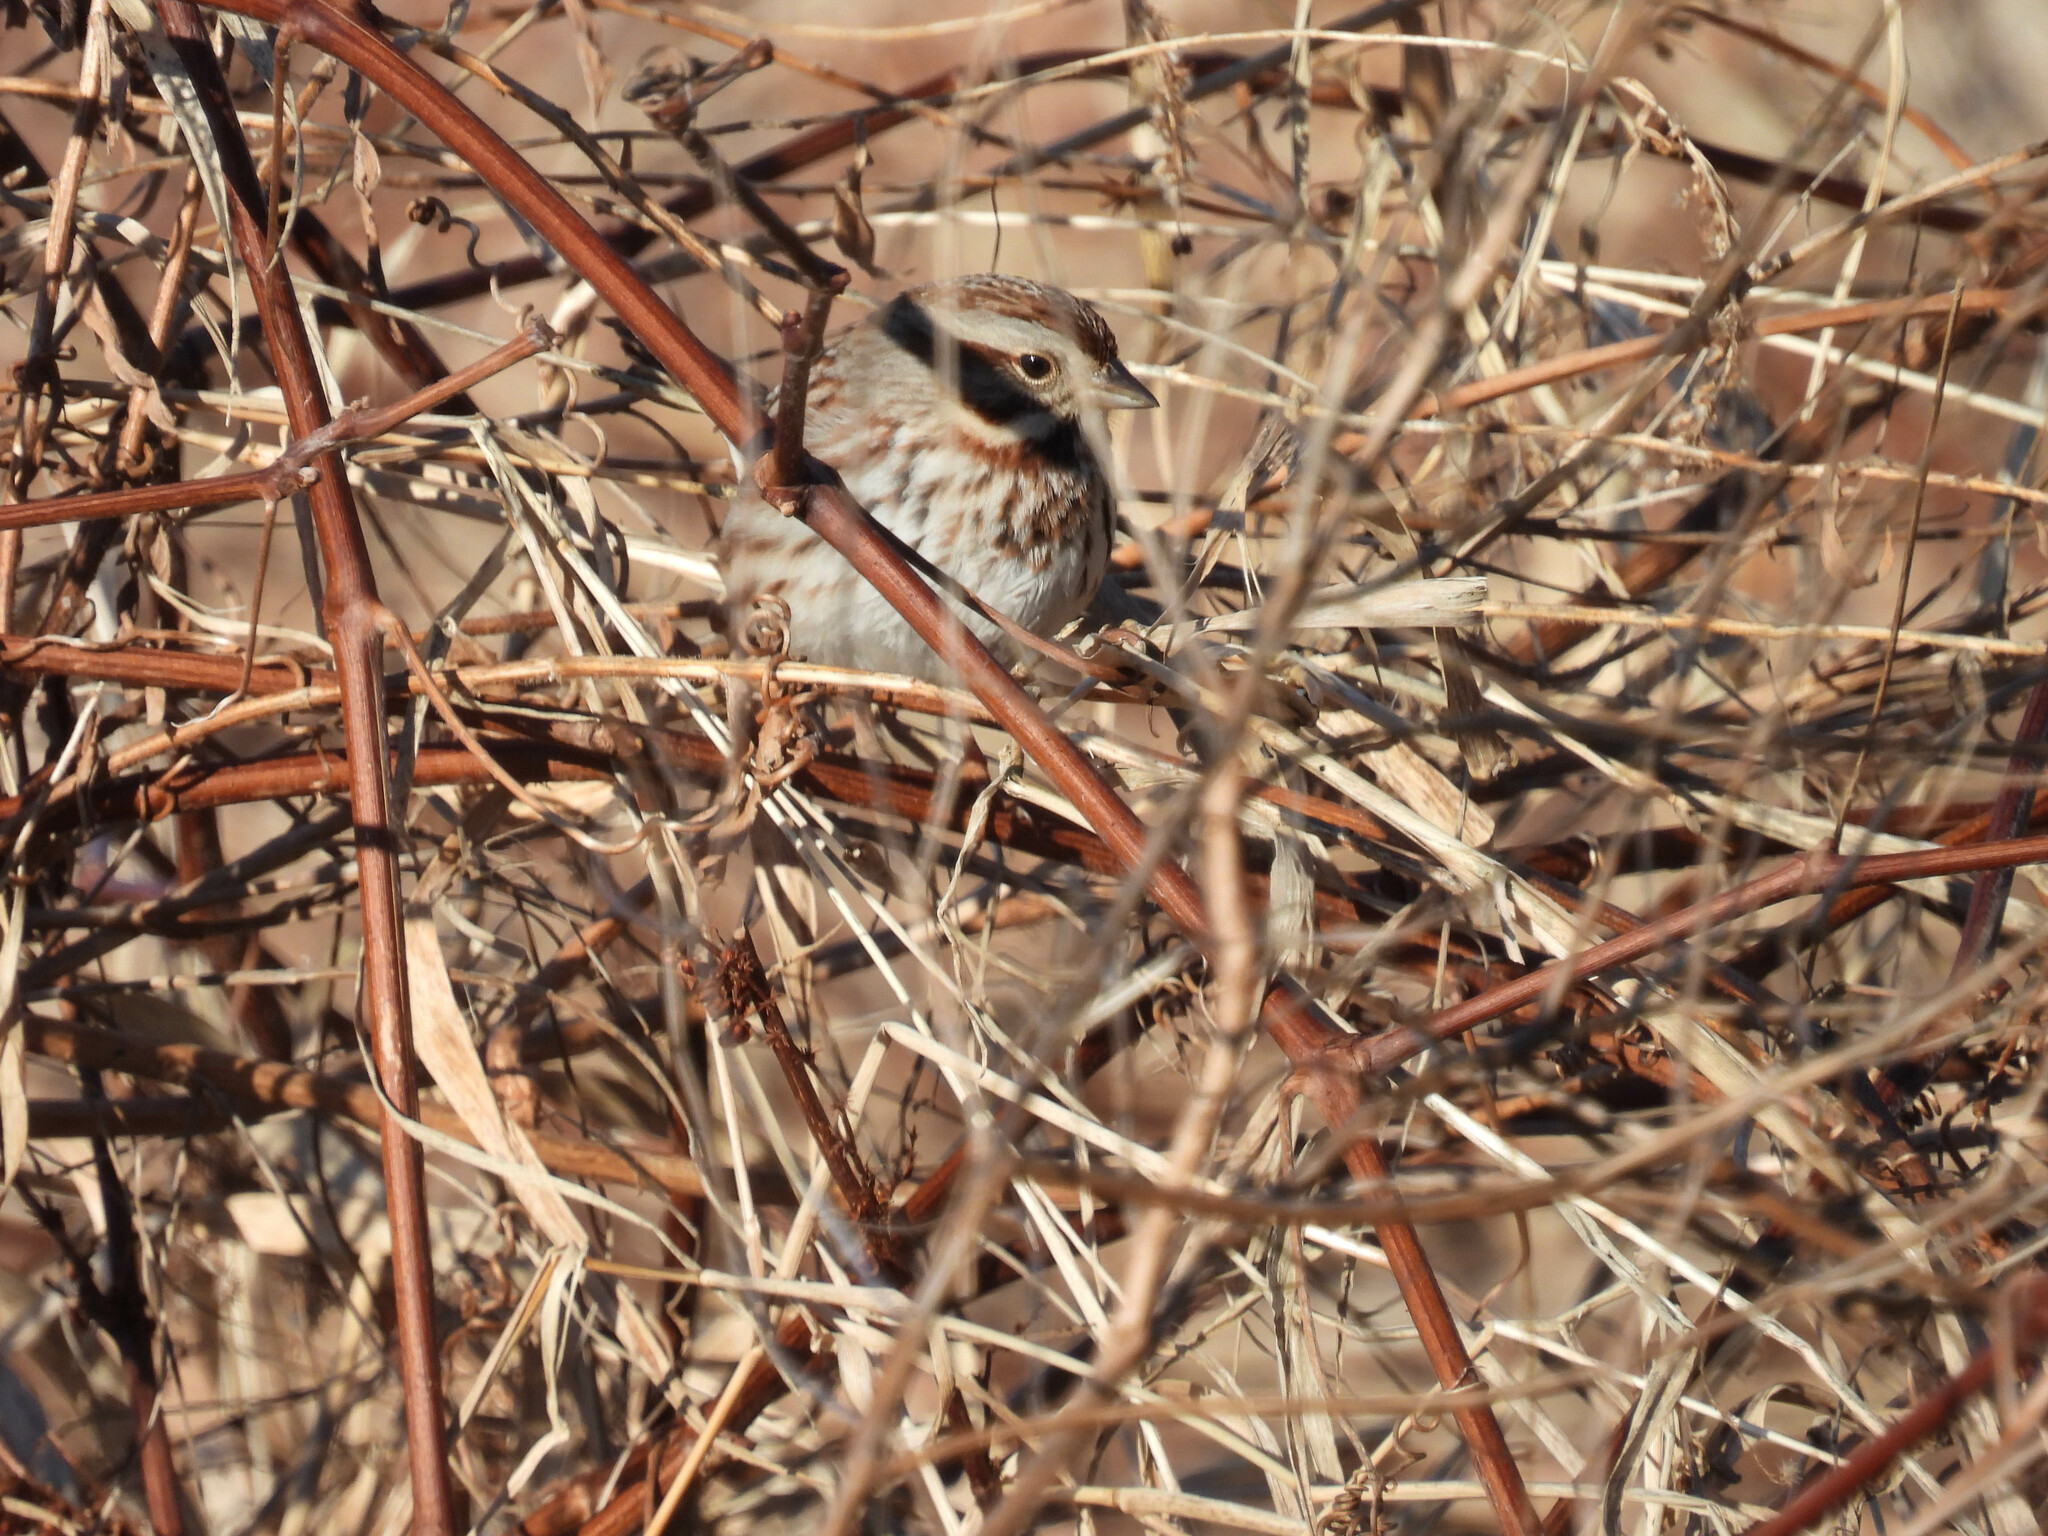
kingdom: Animalia
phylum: Chordata
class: Aves
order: Passeriformes
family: Passerellidae
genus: Melospiza
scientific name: Melospiza melodia
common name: Song sparrow
